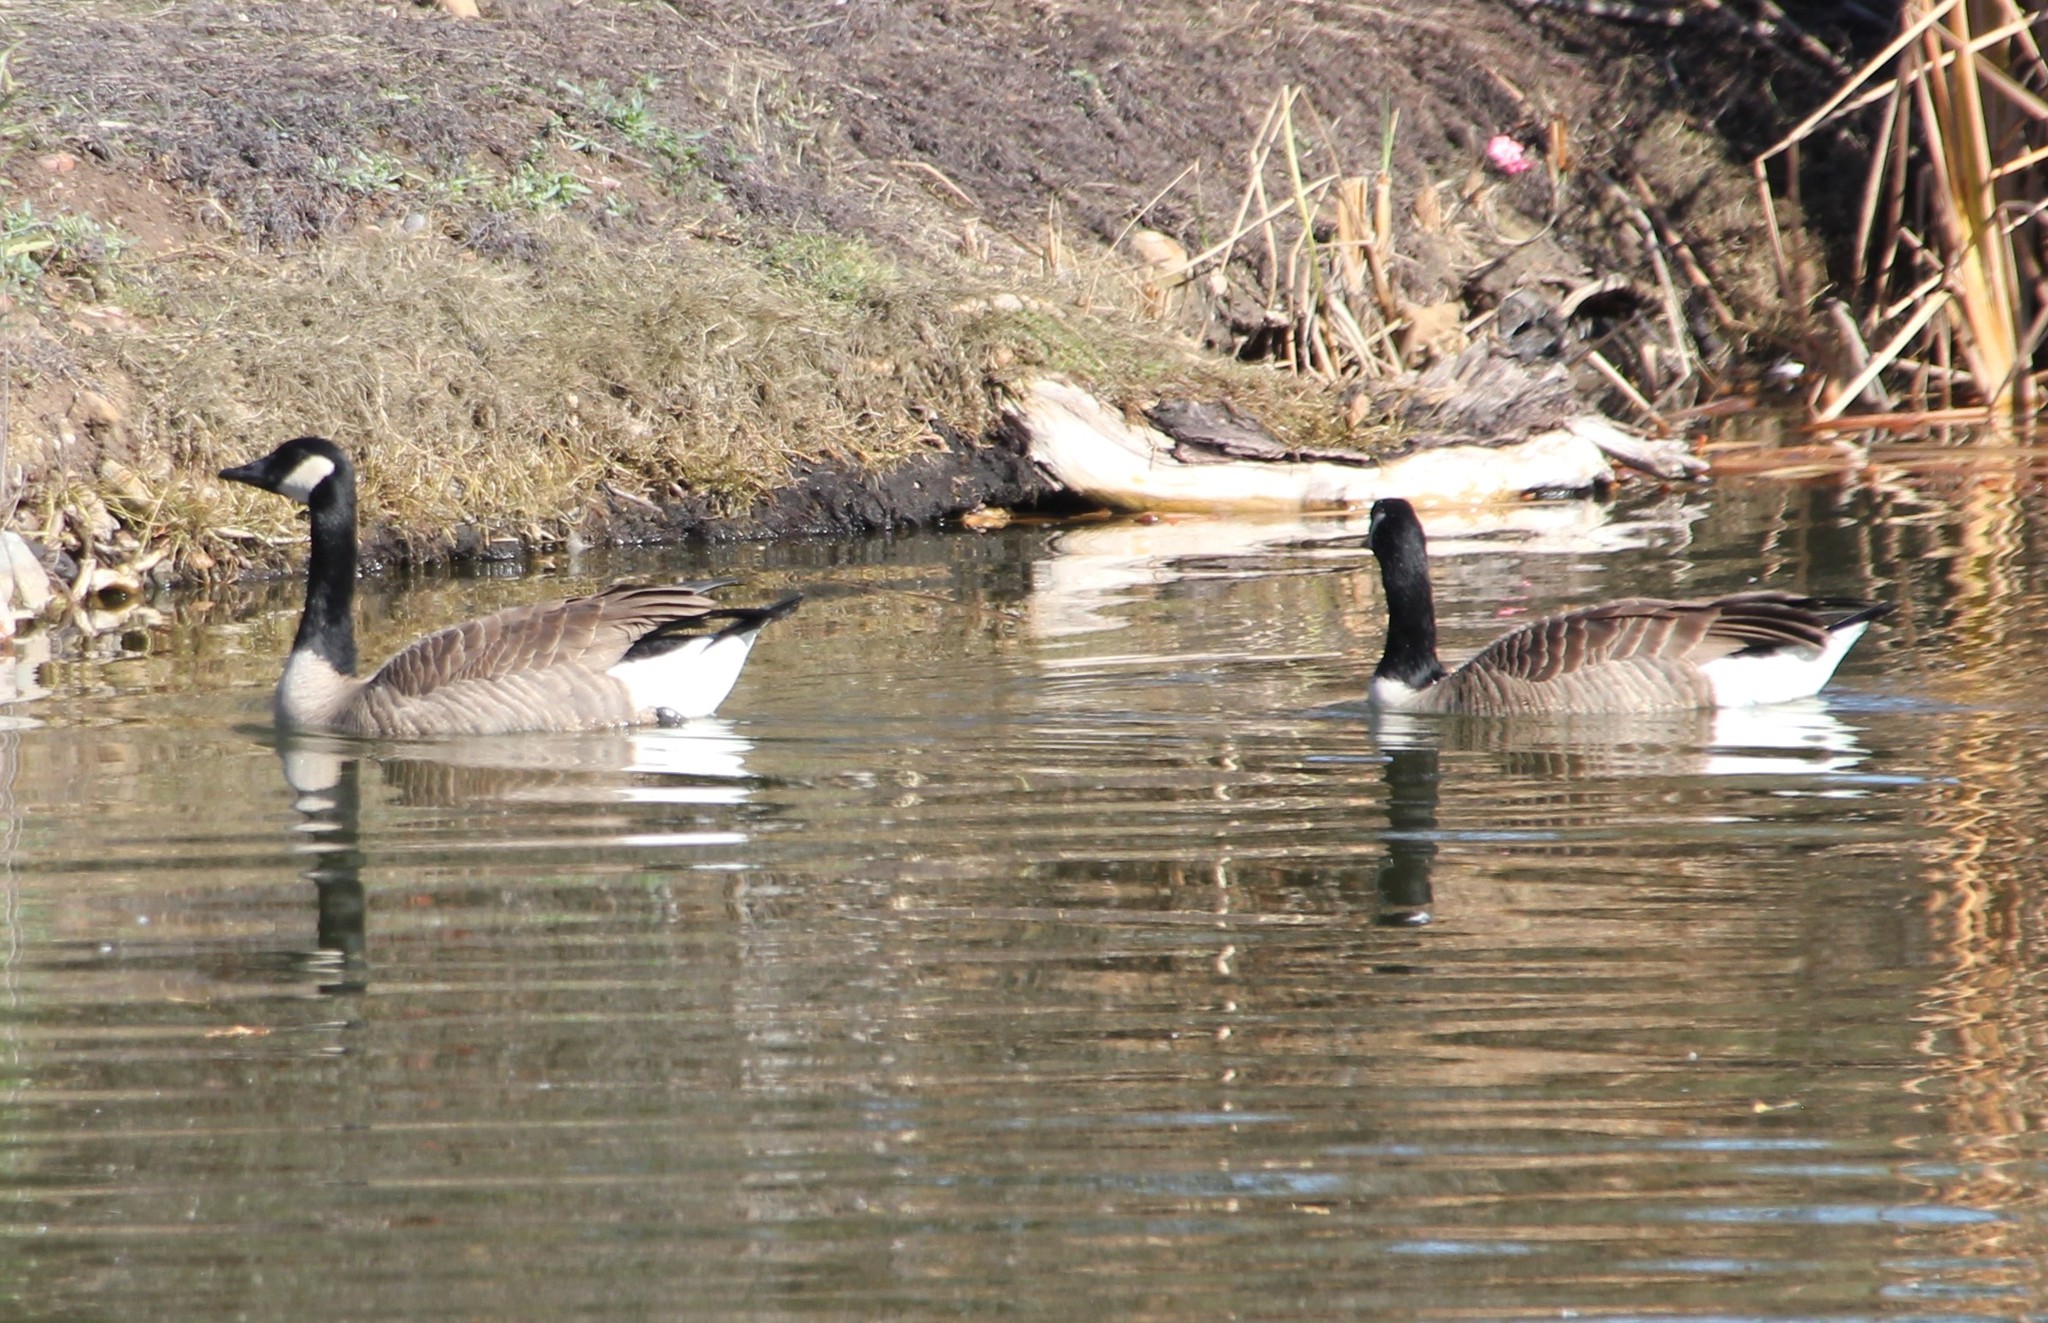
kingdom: Animalia
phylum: Chordata
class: Aves
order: Anseriformes
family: Anatidae
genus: Branta
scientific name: Branta canadensis
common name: Canada goose
